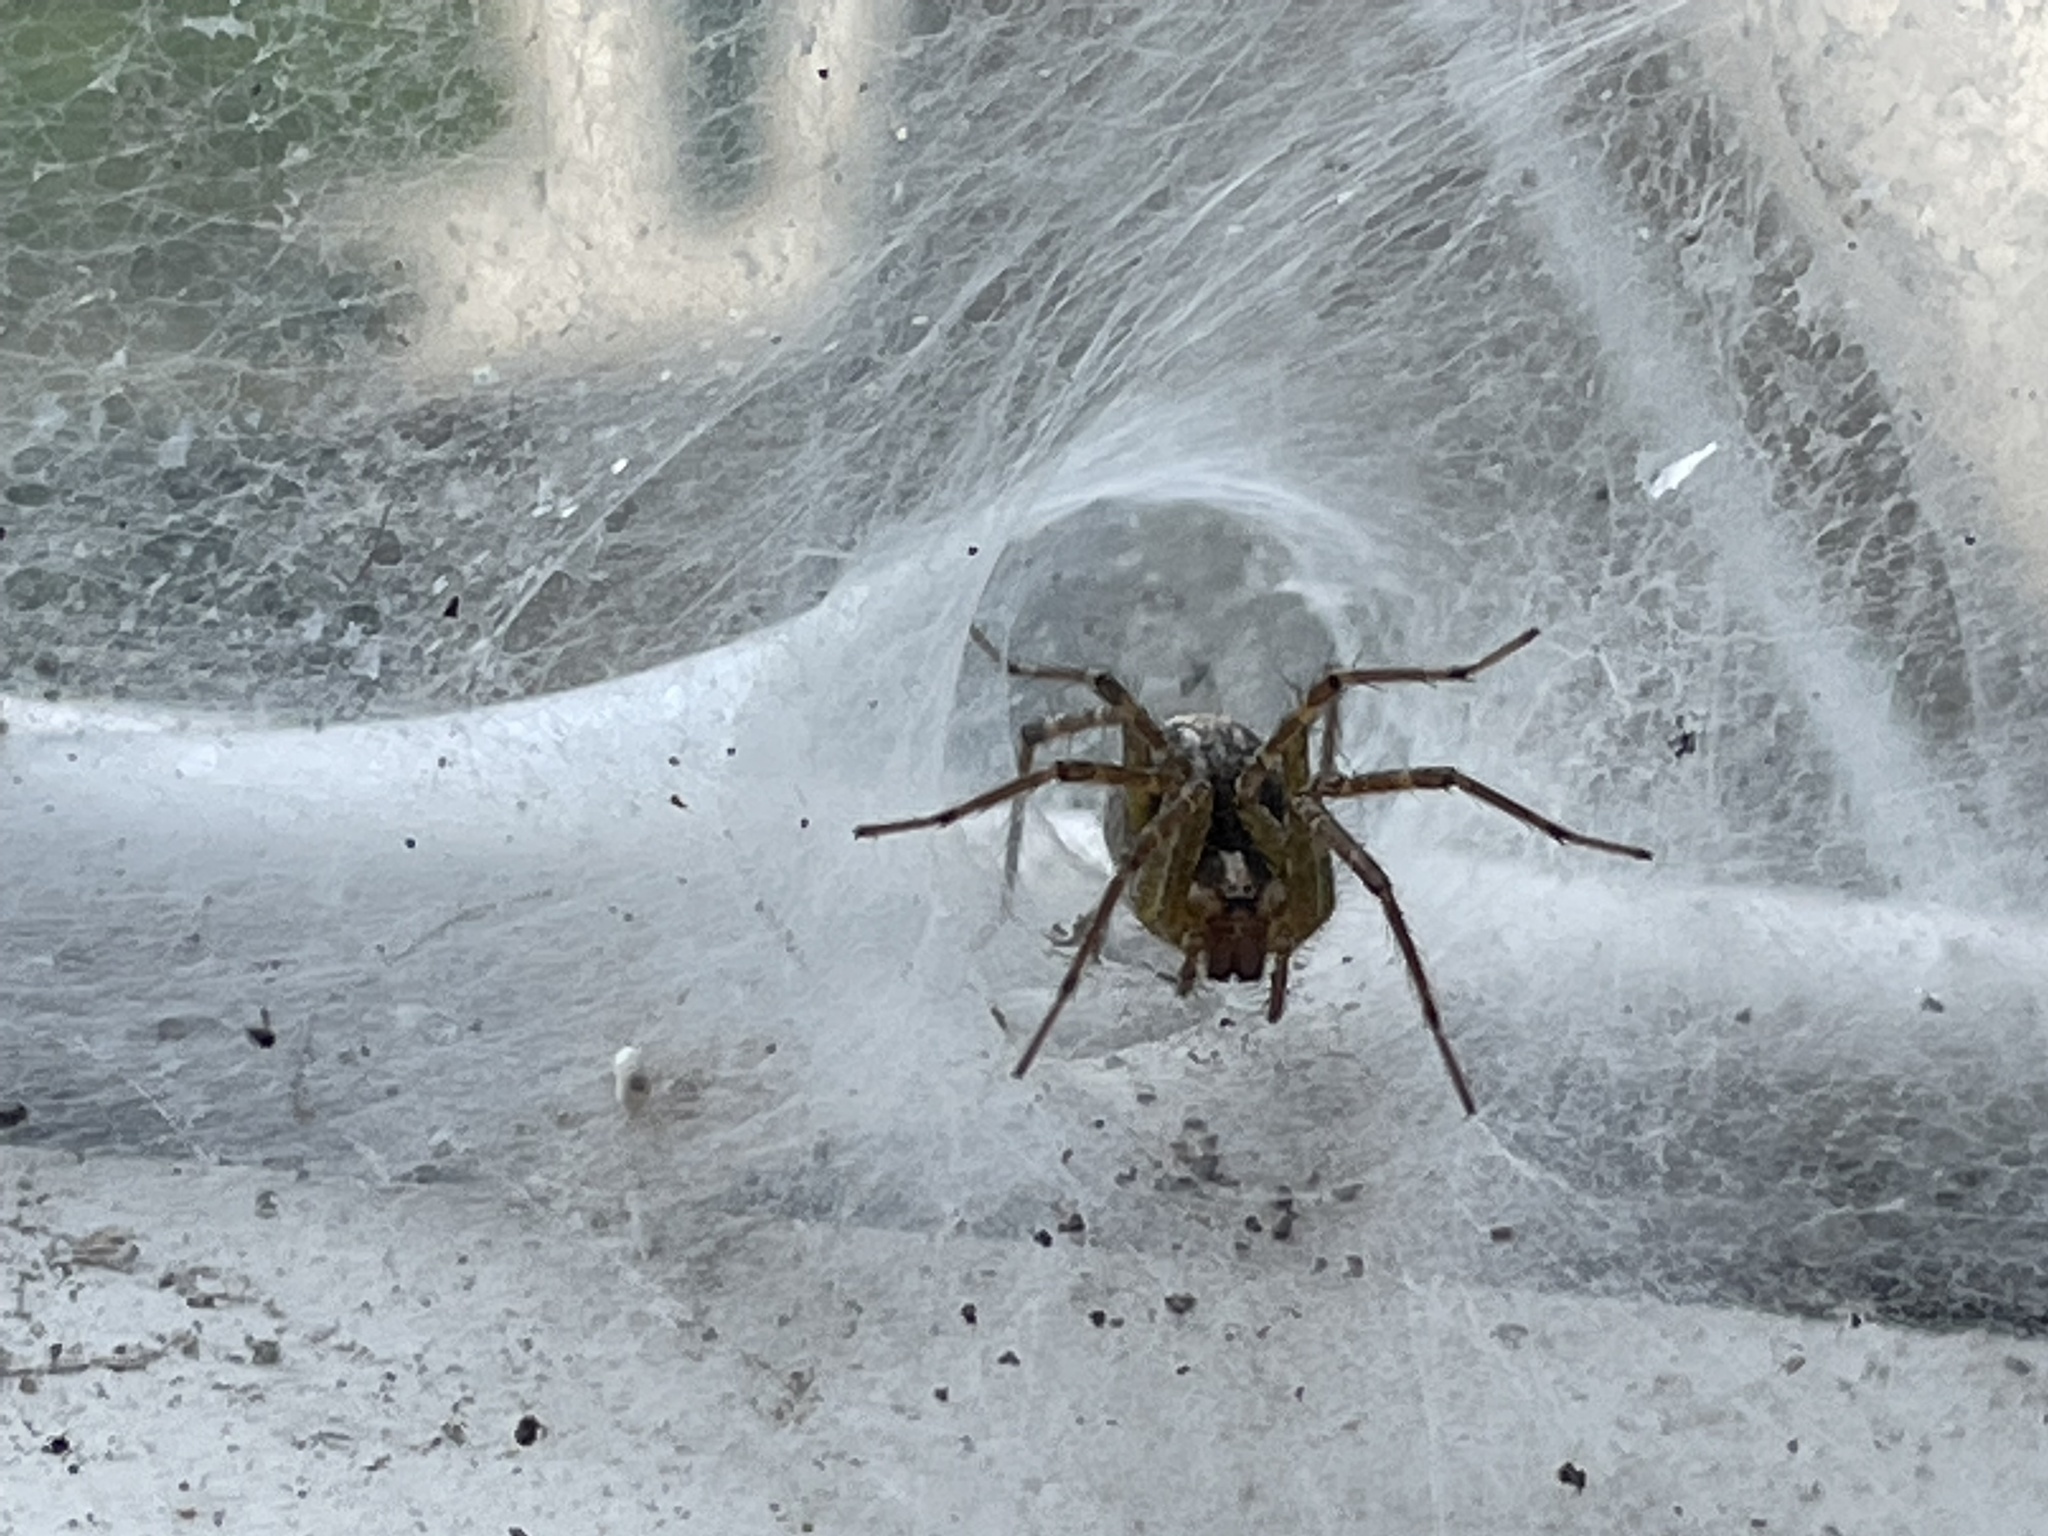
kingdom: Animalia
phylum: Arthropoda
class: Arachnida
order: Araneae
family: Agelenidae
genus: Agelenopsis
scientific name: Agelenopsis
